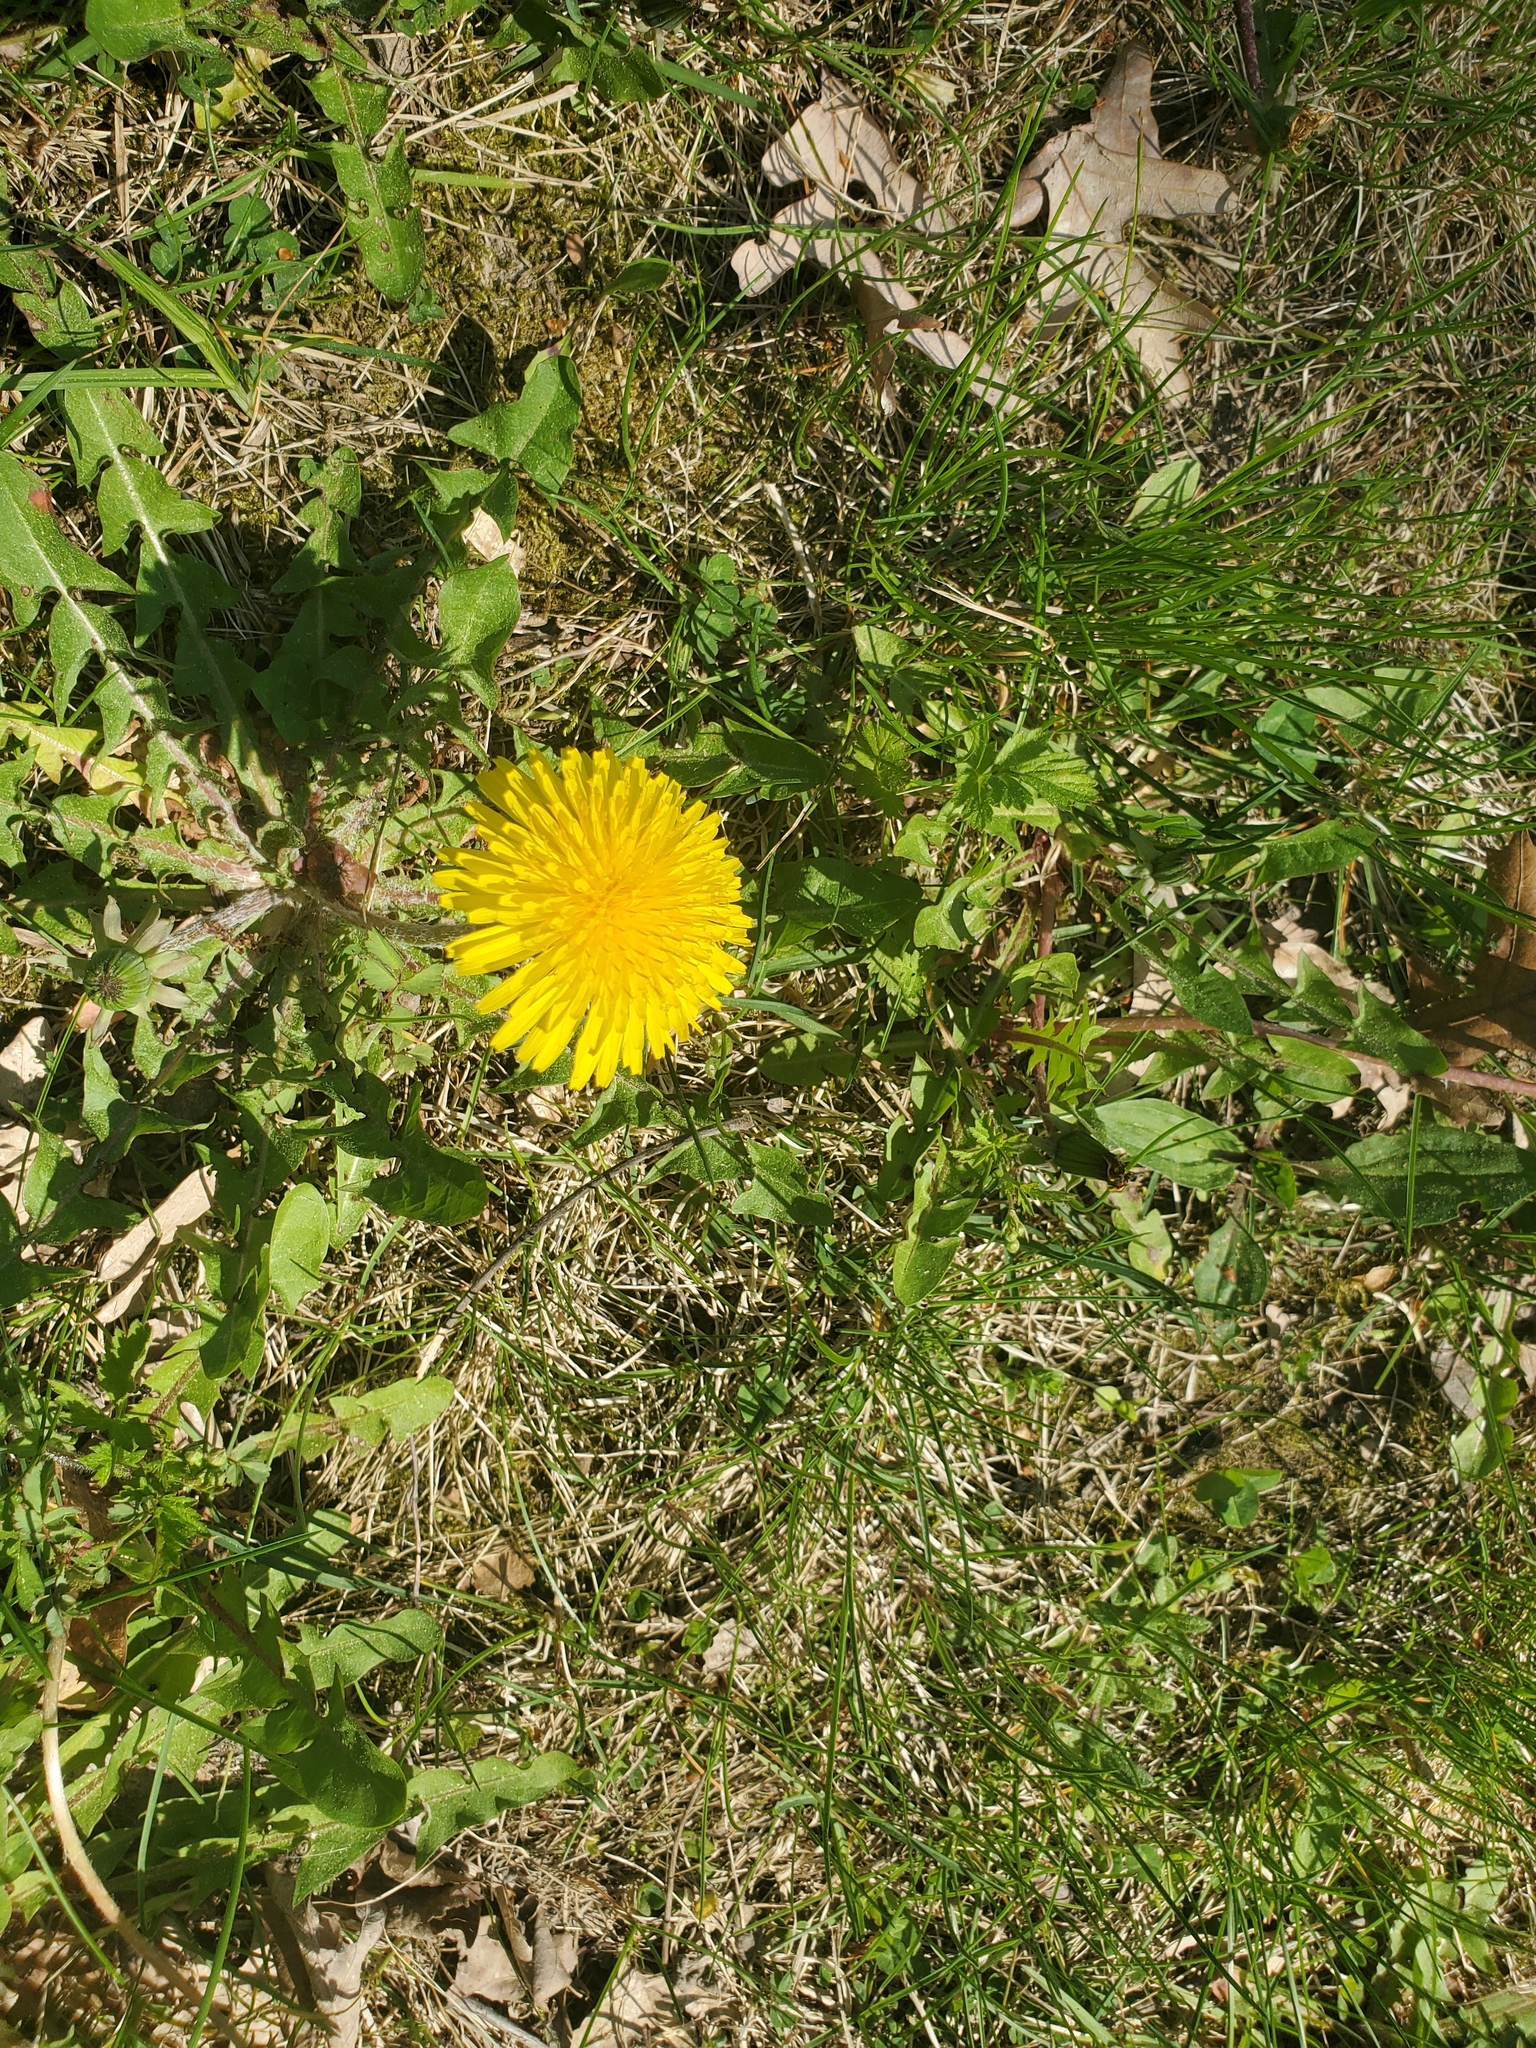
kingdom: Plantae
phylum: Tracheophyta
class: Magnoliopsida
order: Asterales
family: Asteraceae
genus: Taraxacum
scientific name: Taraxacum officinale
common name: Common dandelion
